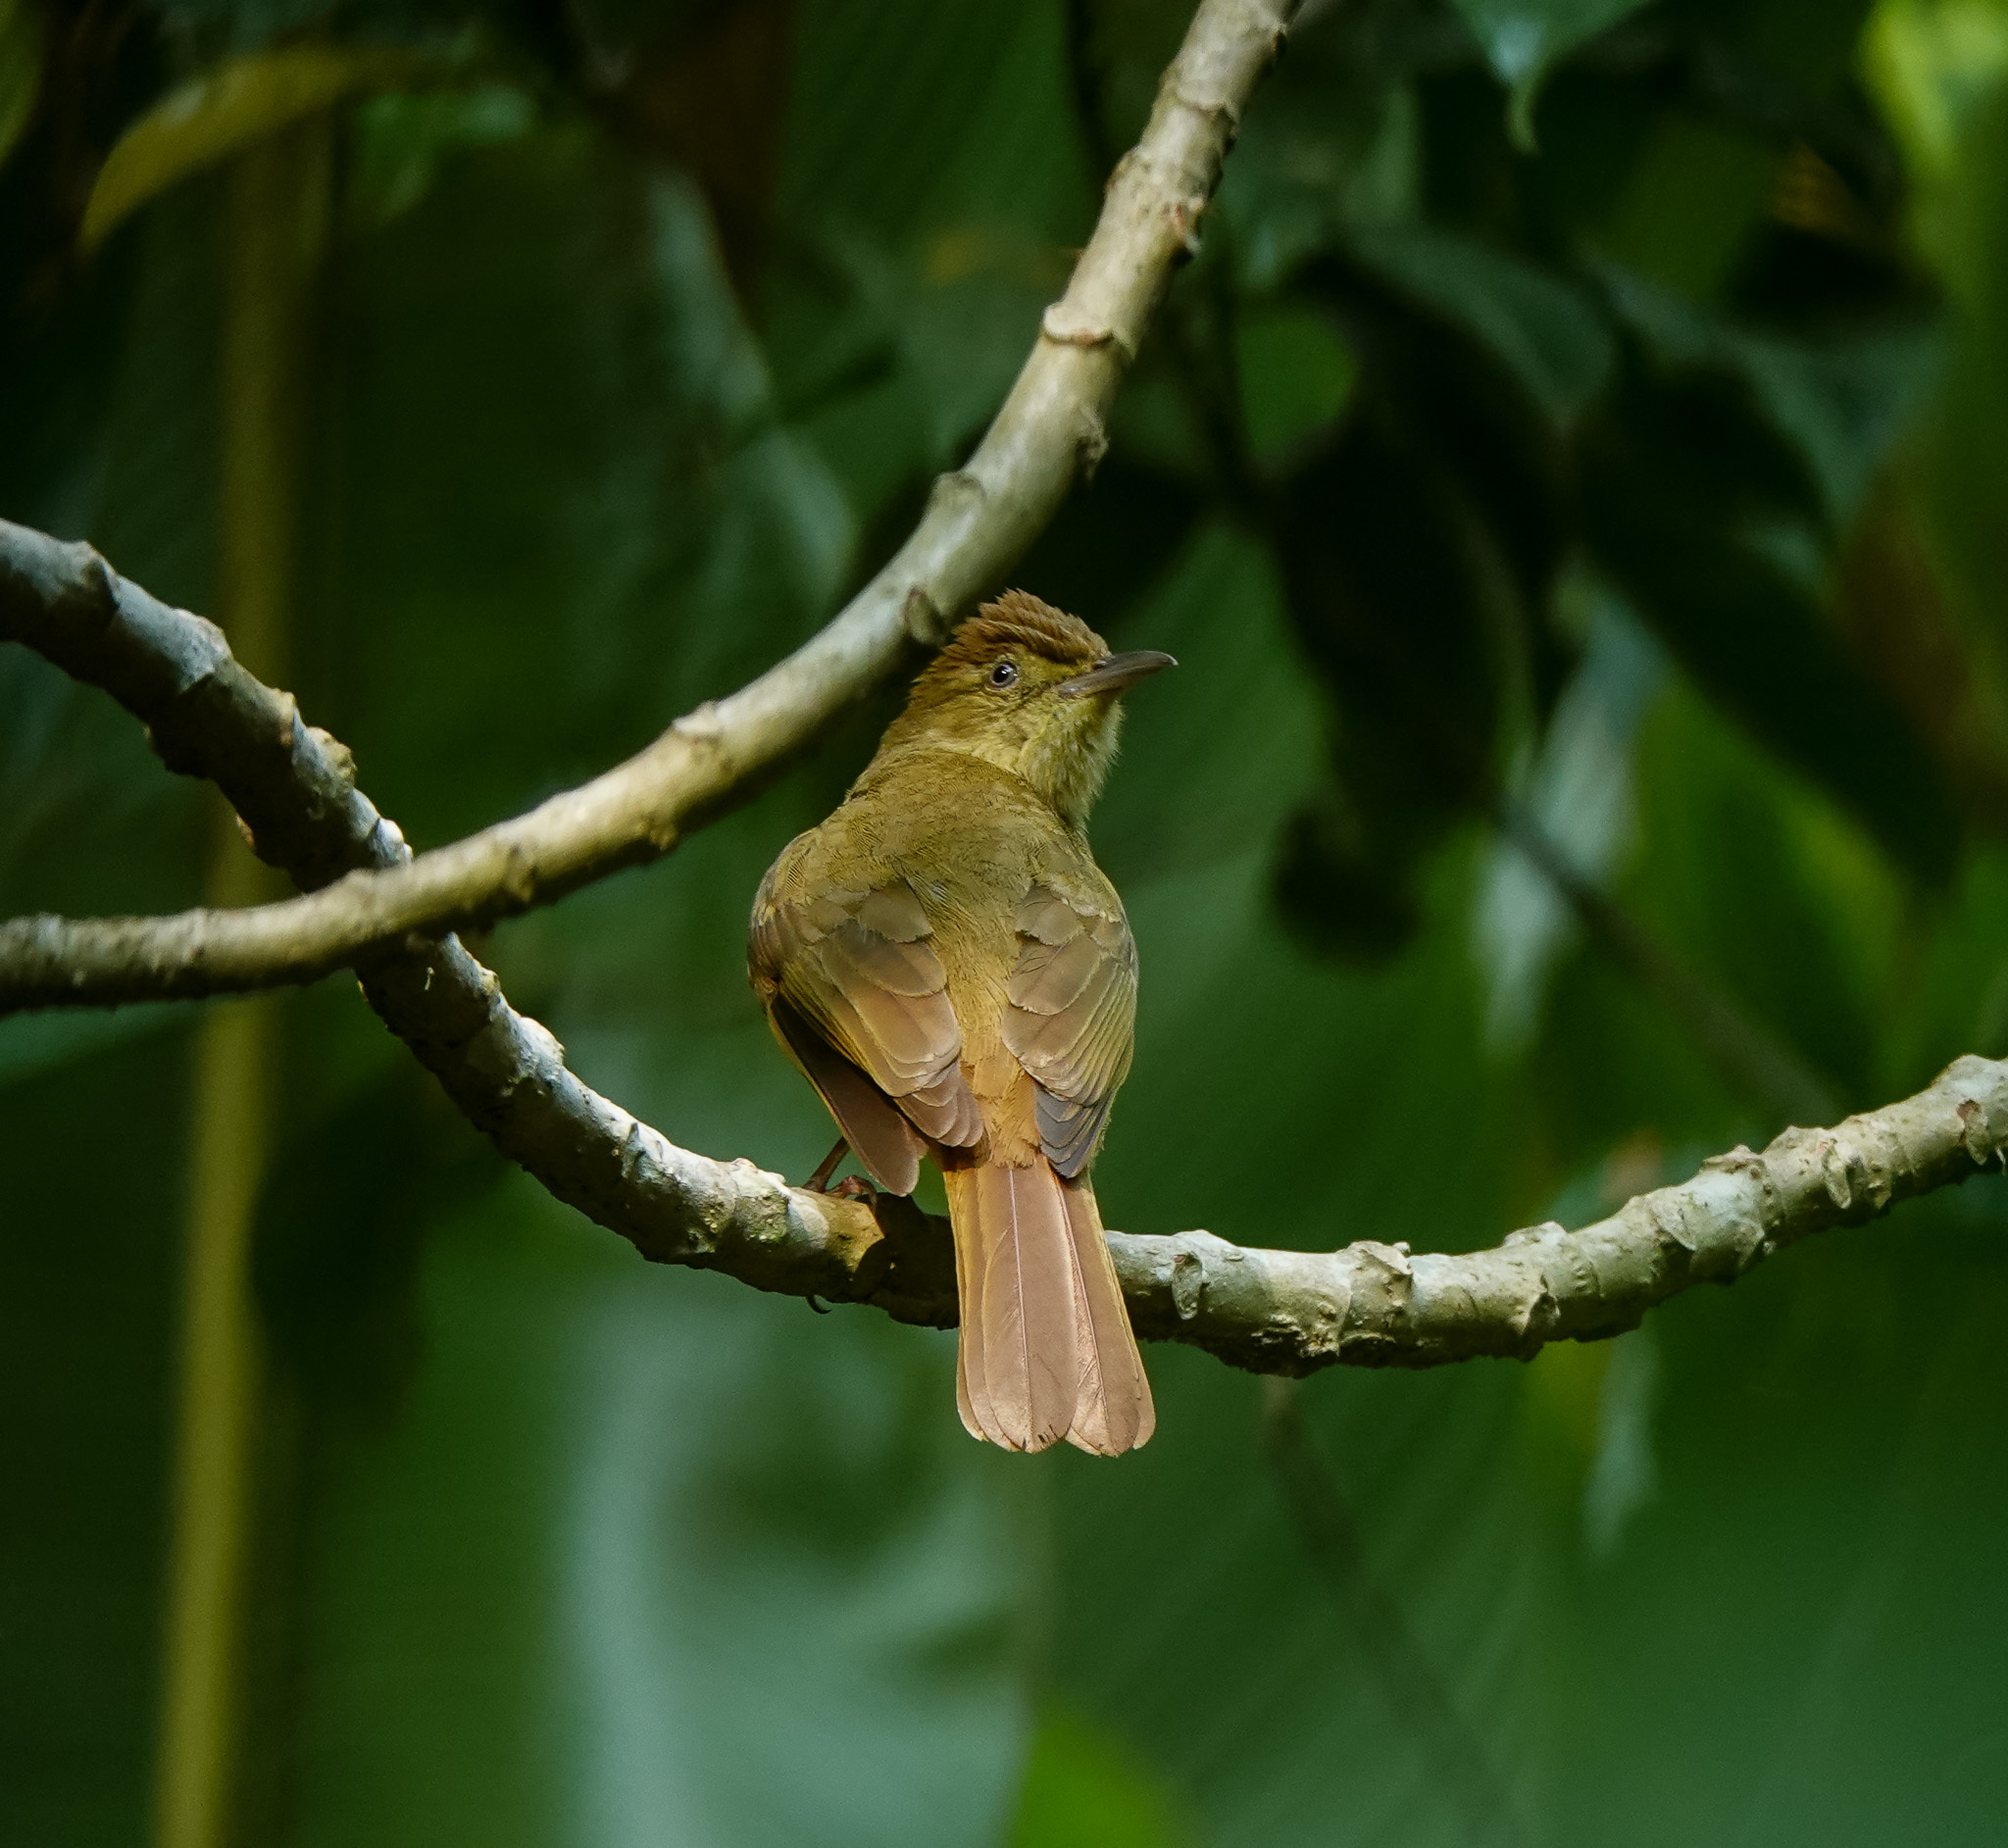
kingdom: Animalia
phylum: Chordata
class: Aves
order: Passeriformes
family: Pycnonotidae
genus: Iole
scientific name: Iole virescens
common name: Olive bulbul
